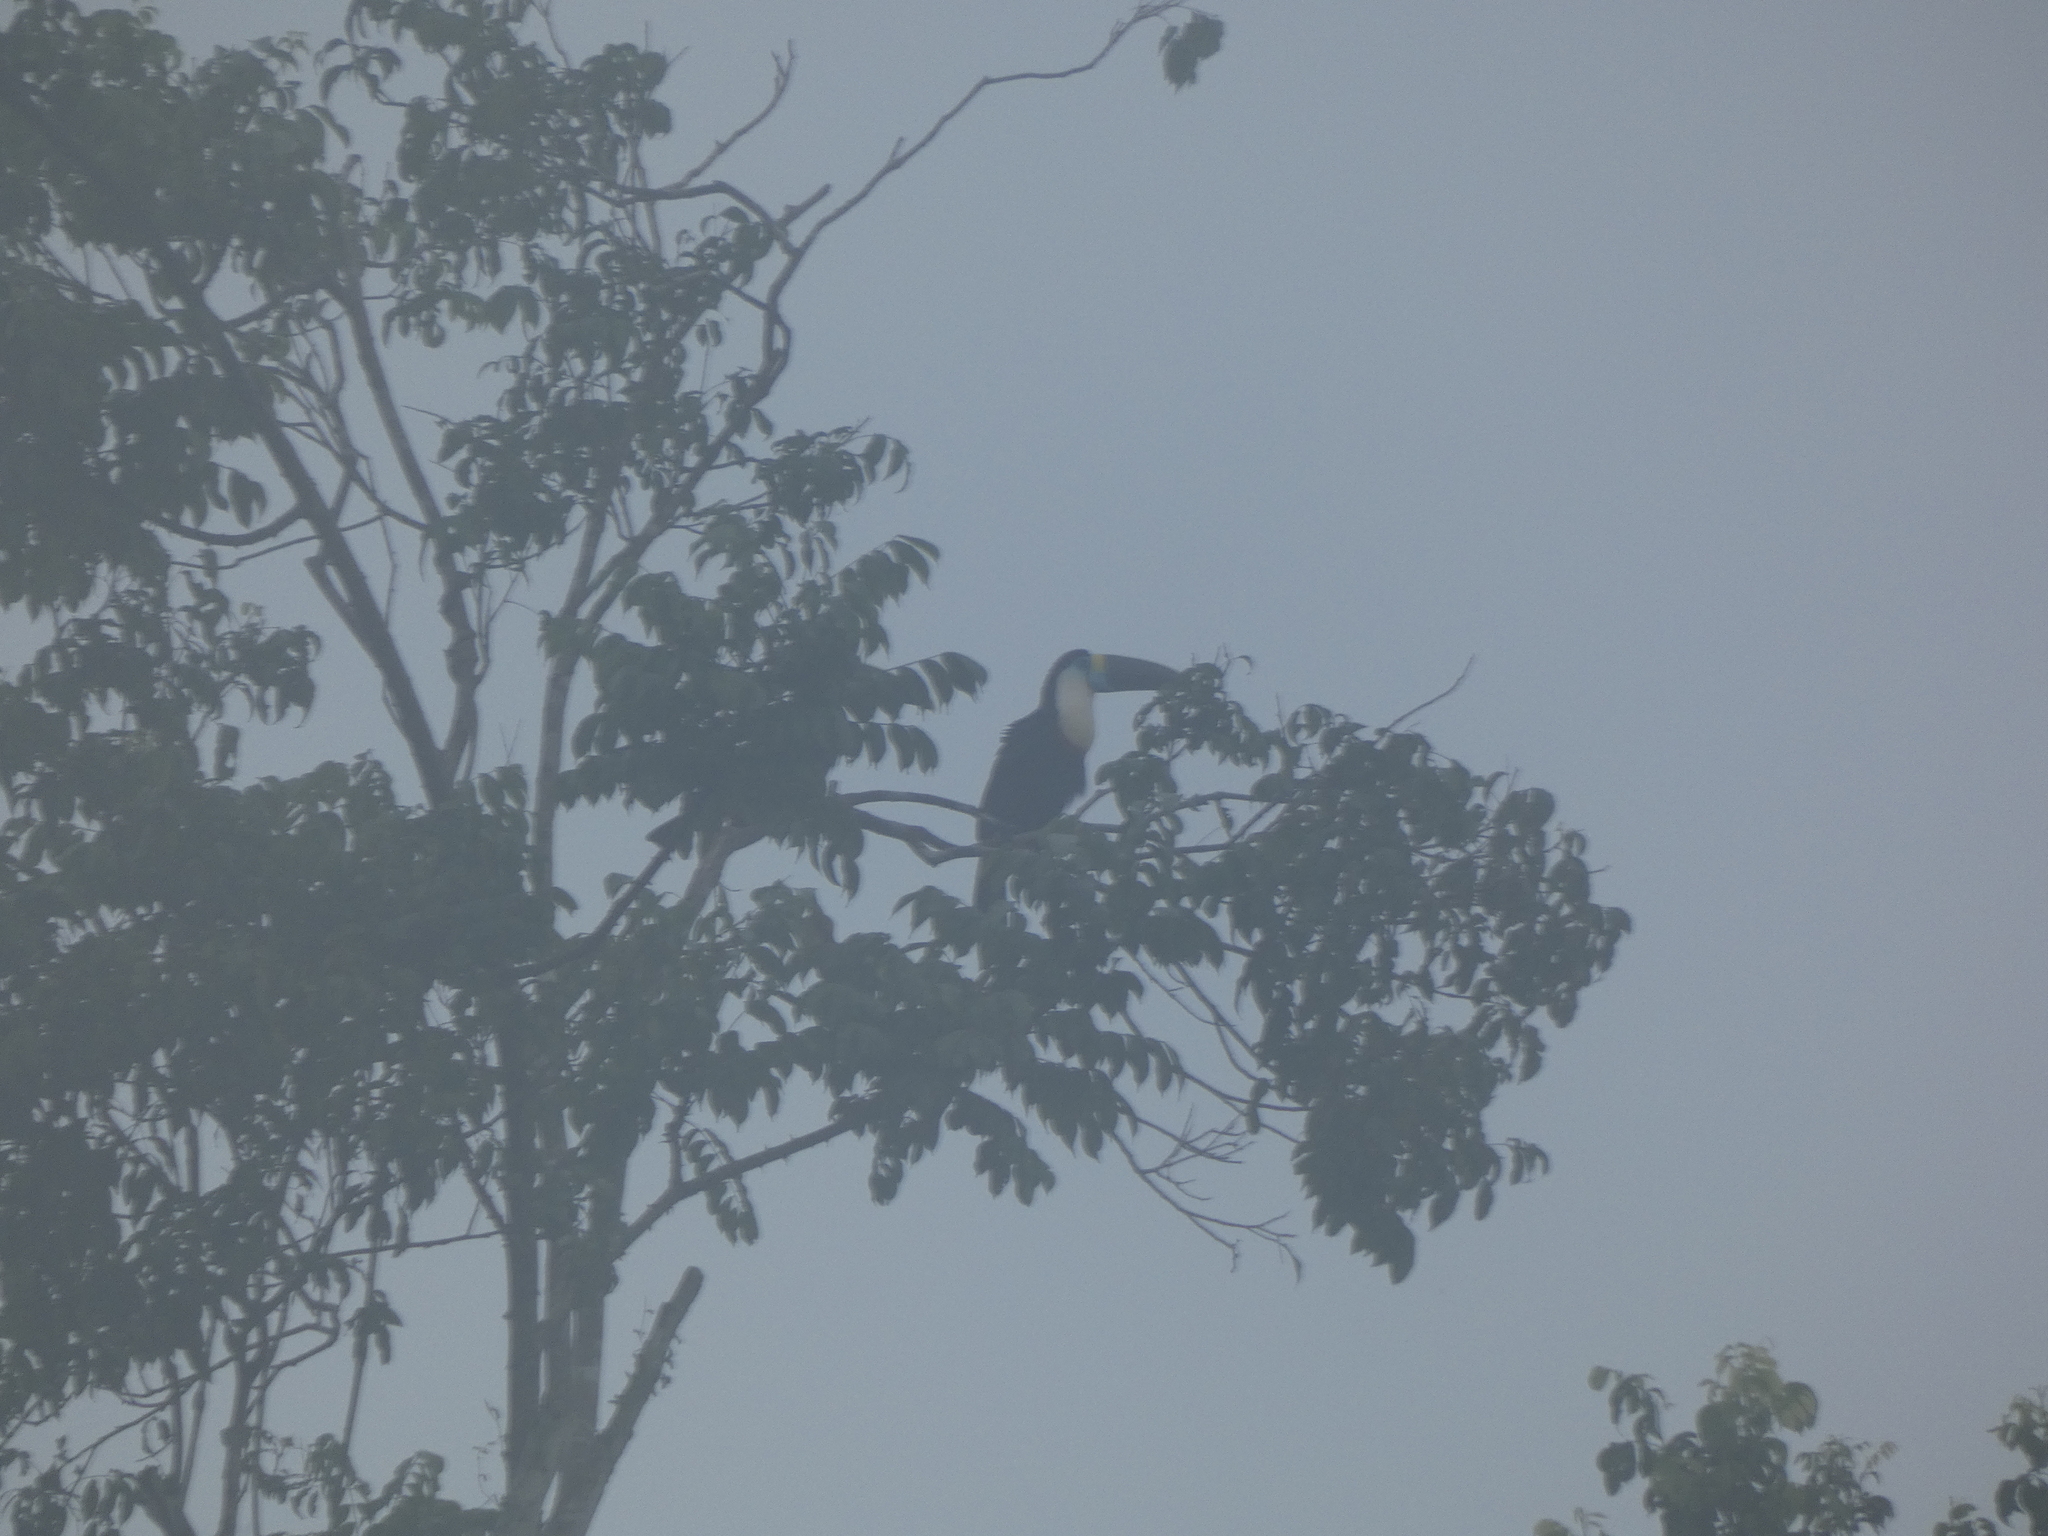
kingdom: Animalia
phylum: Chordata
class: Aves
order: Piciformes
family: Ramphastidae
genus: Ramphastos
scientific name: Ramphastos tucanus
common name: White-throated toucan
